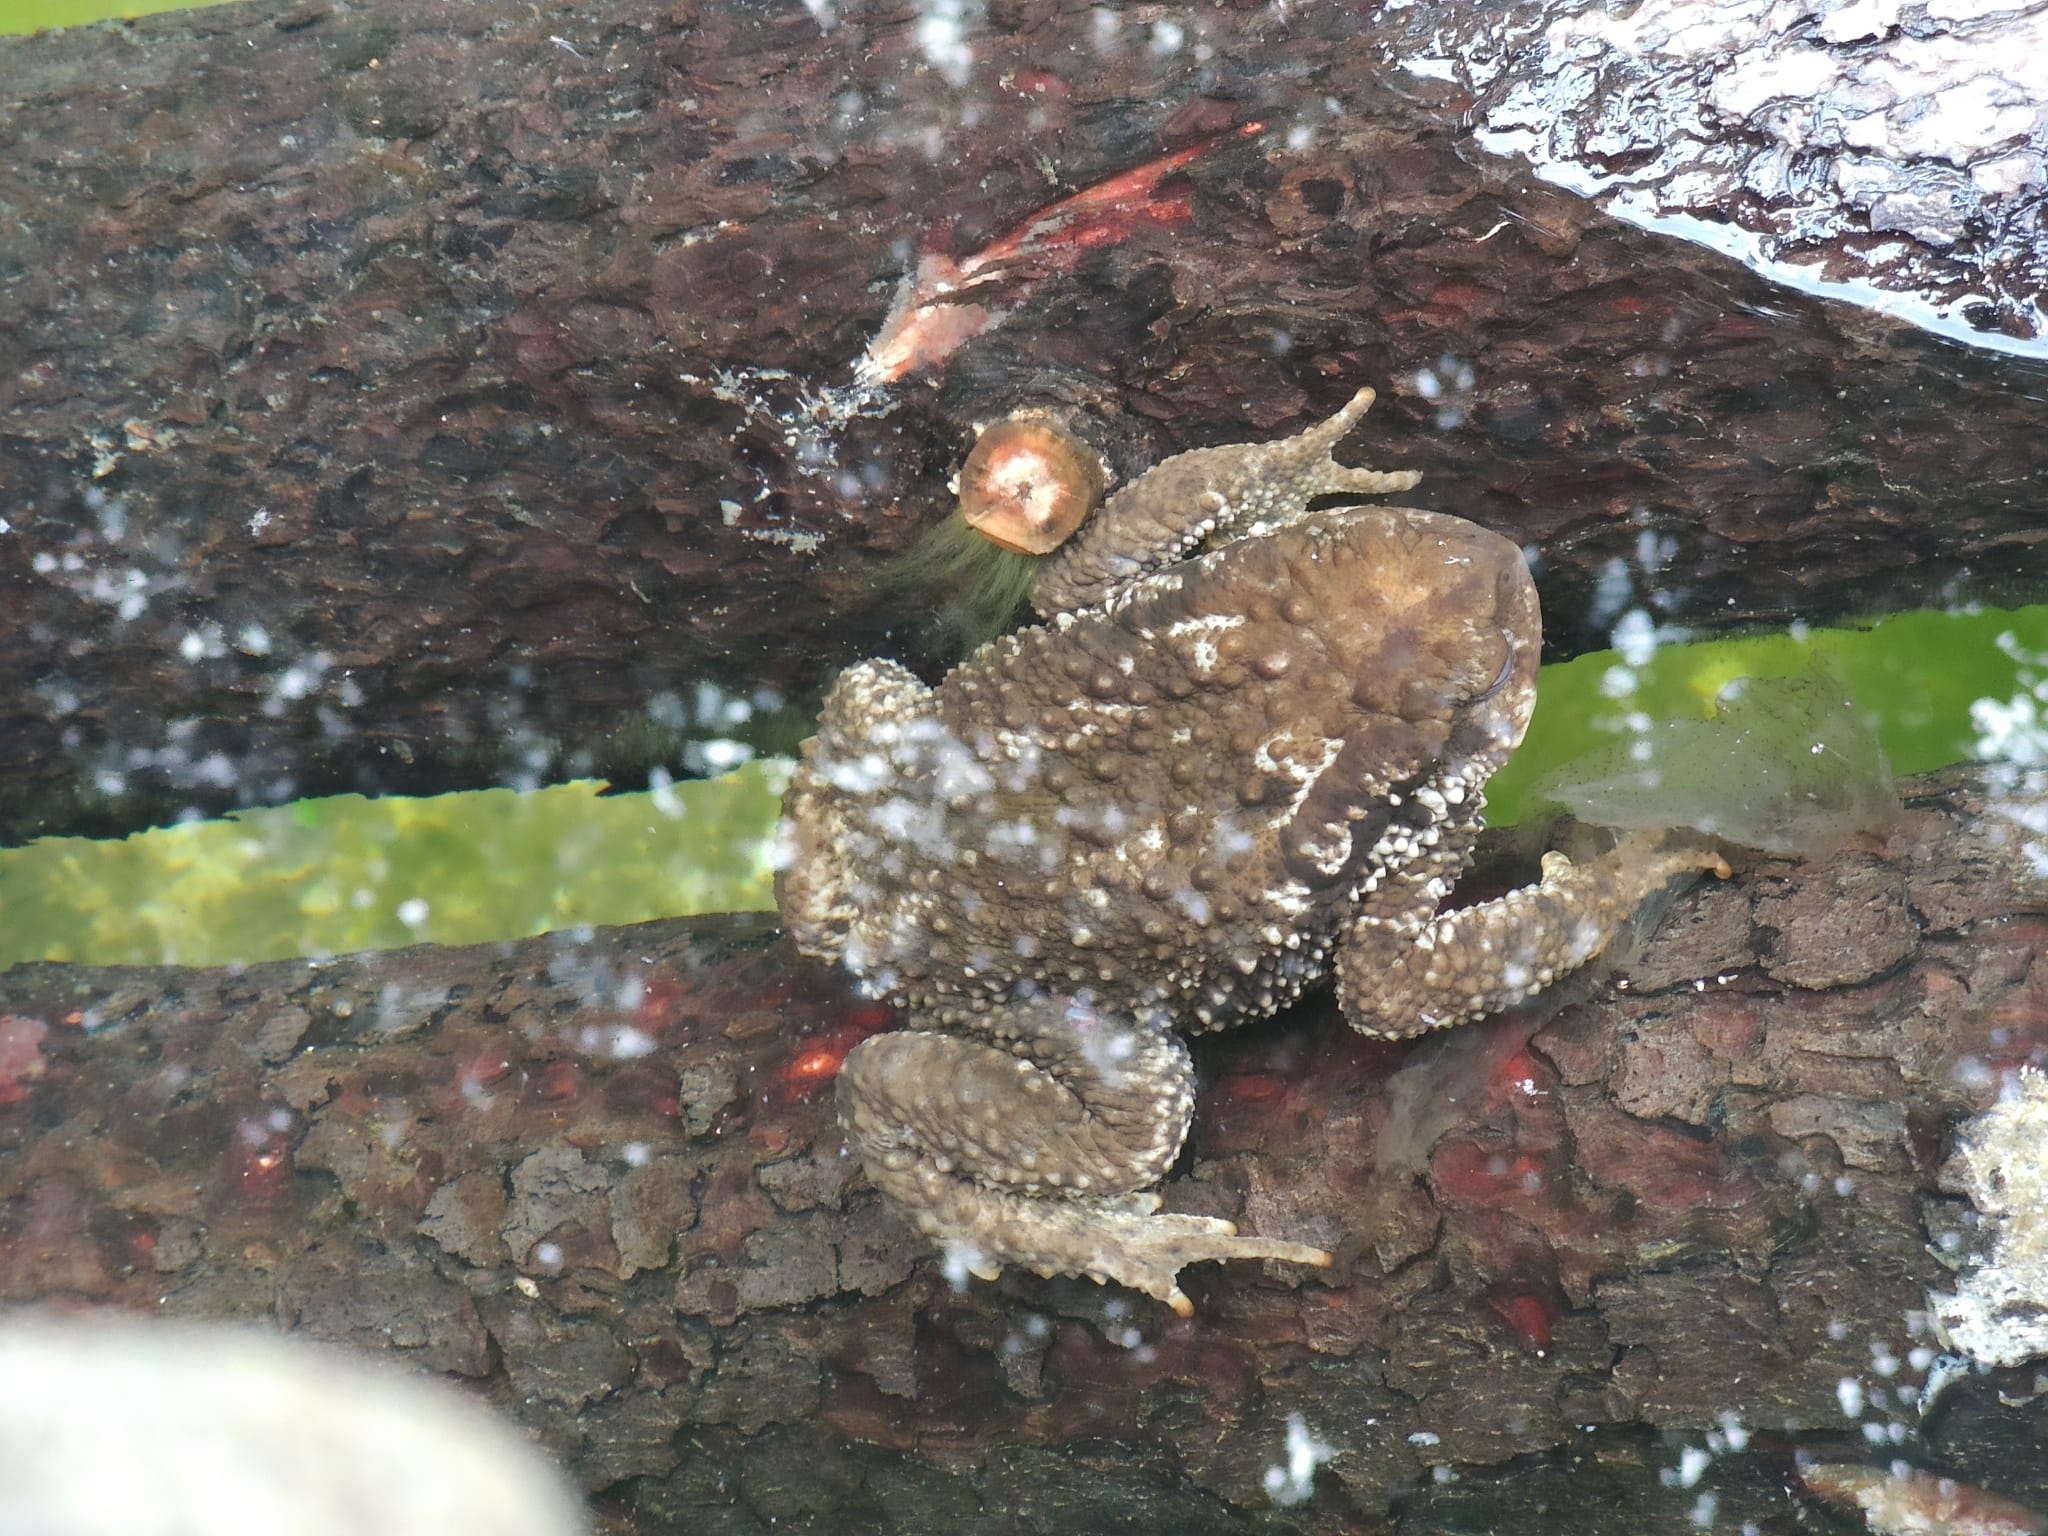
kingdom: Animalia
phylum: Chordata
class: Amphibia
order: Anura
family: Bufonidae
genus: Bufo
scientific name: Bufo spinosus
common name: Western common toad
